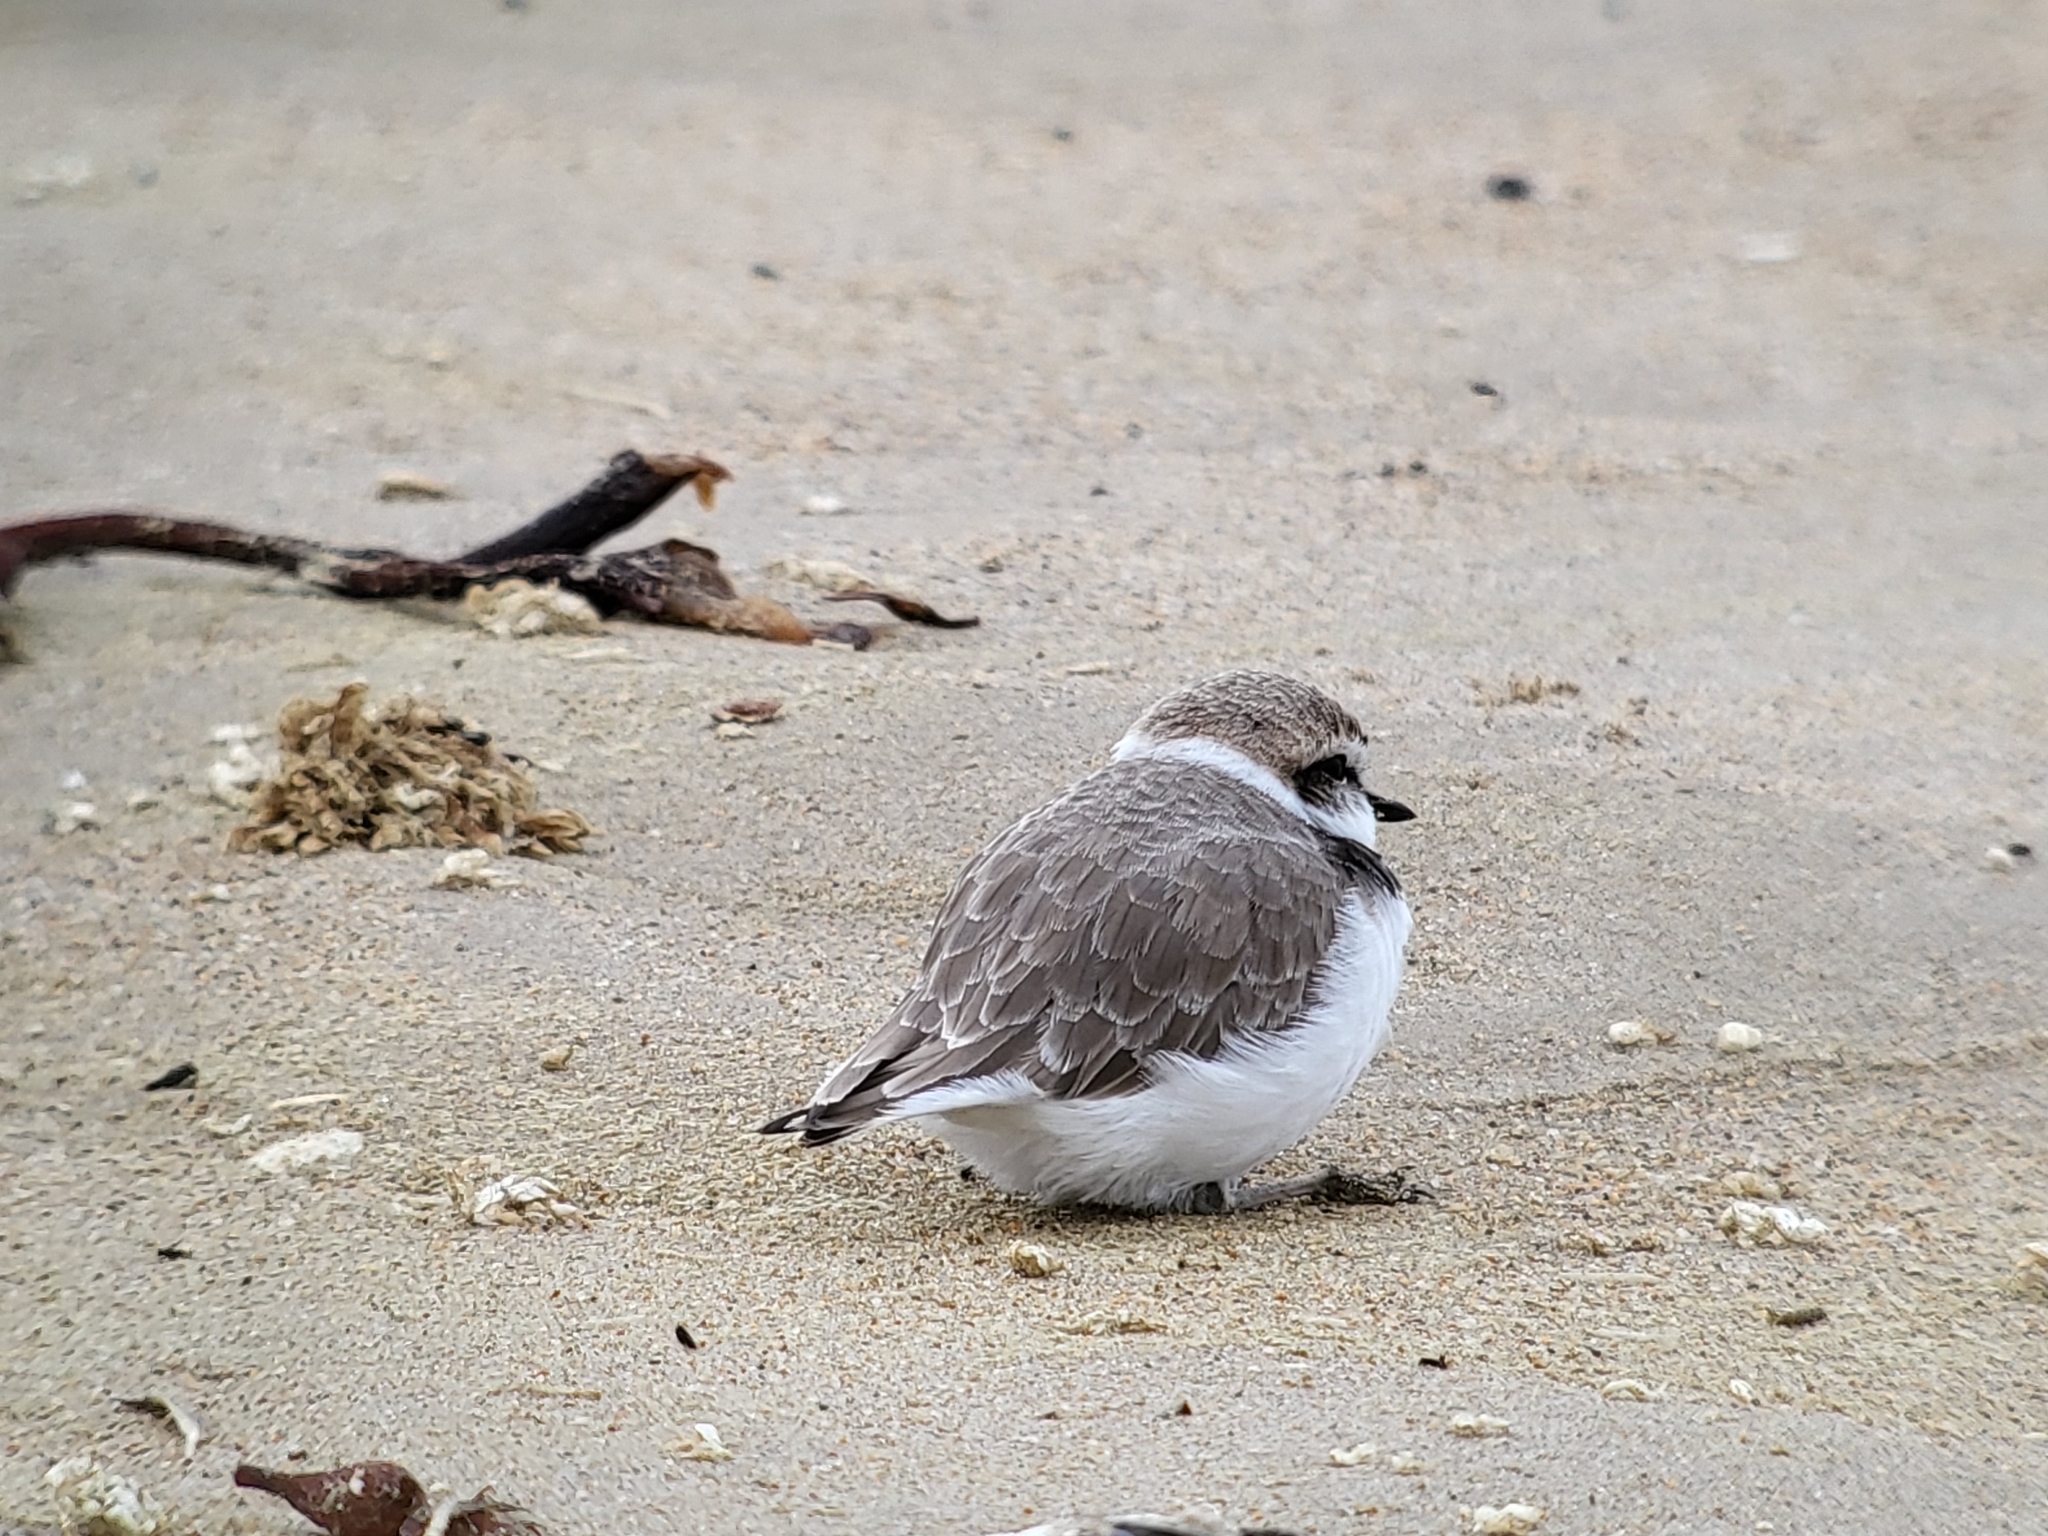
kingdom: Animalia
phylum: Chordata
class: Aves
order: Charadriiformes
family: Charadriidae
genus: Anarhynchus
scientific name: Anarhynchus
